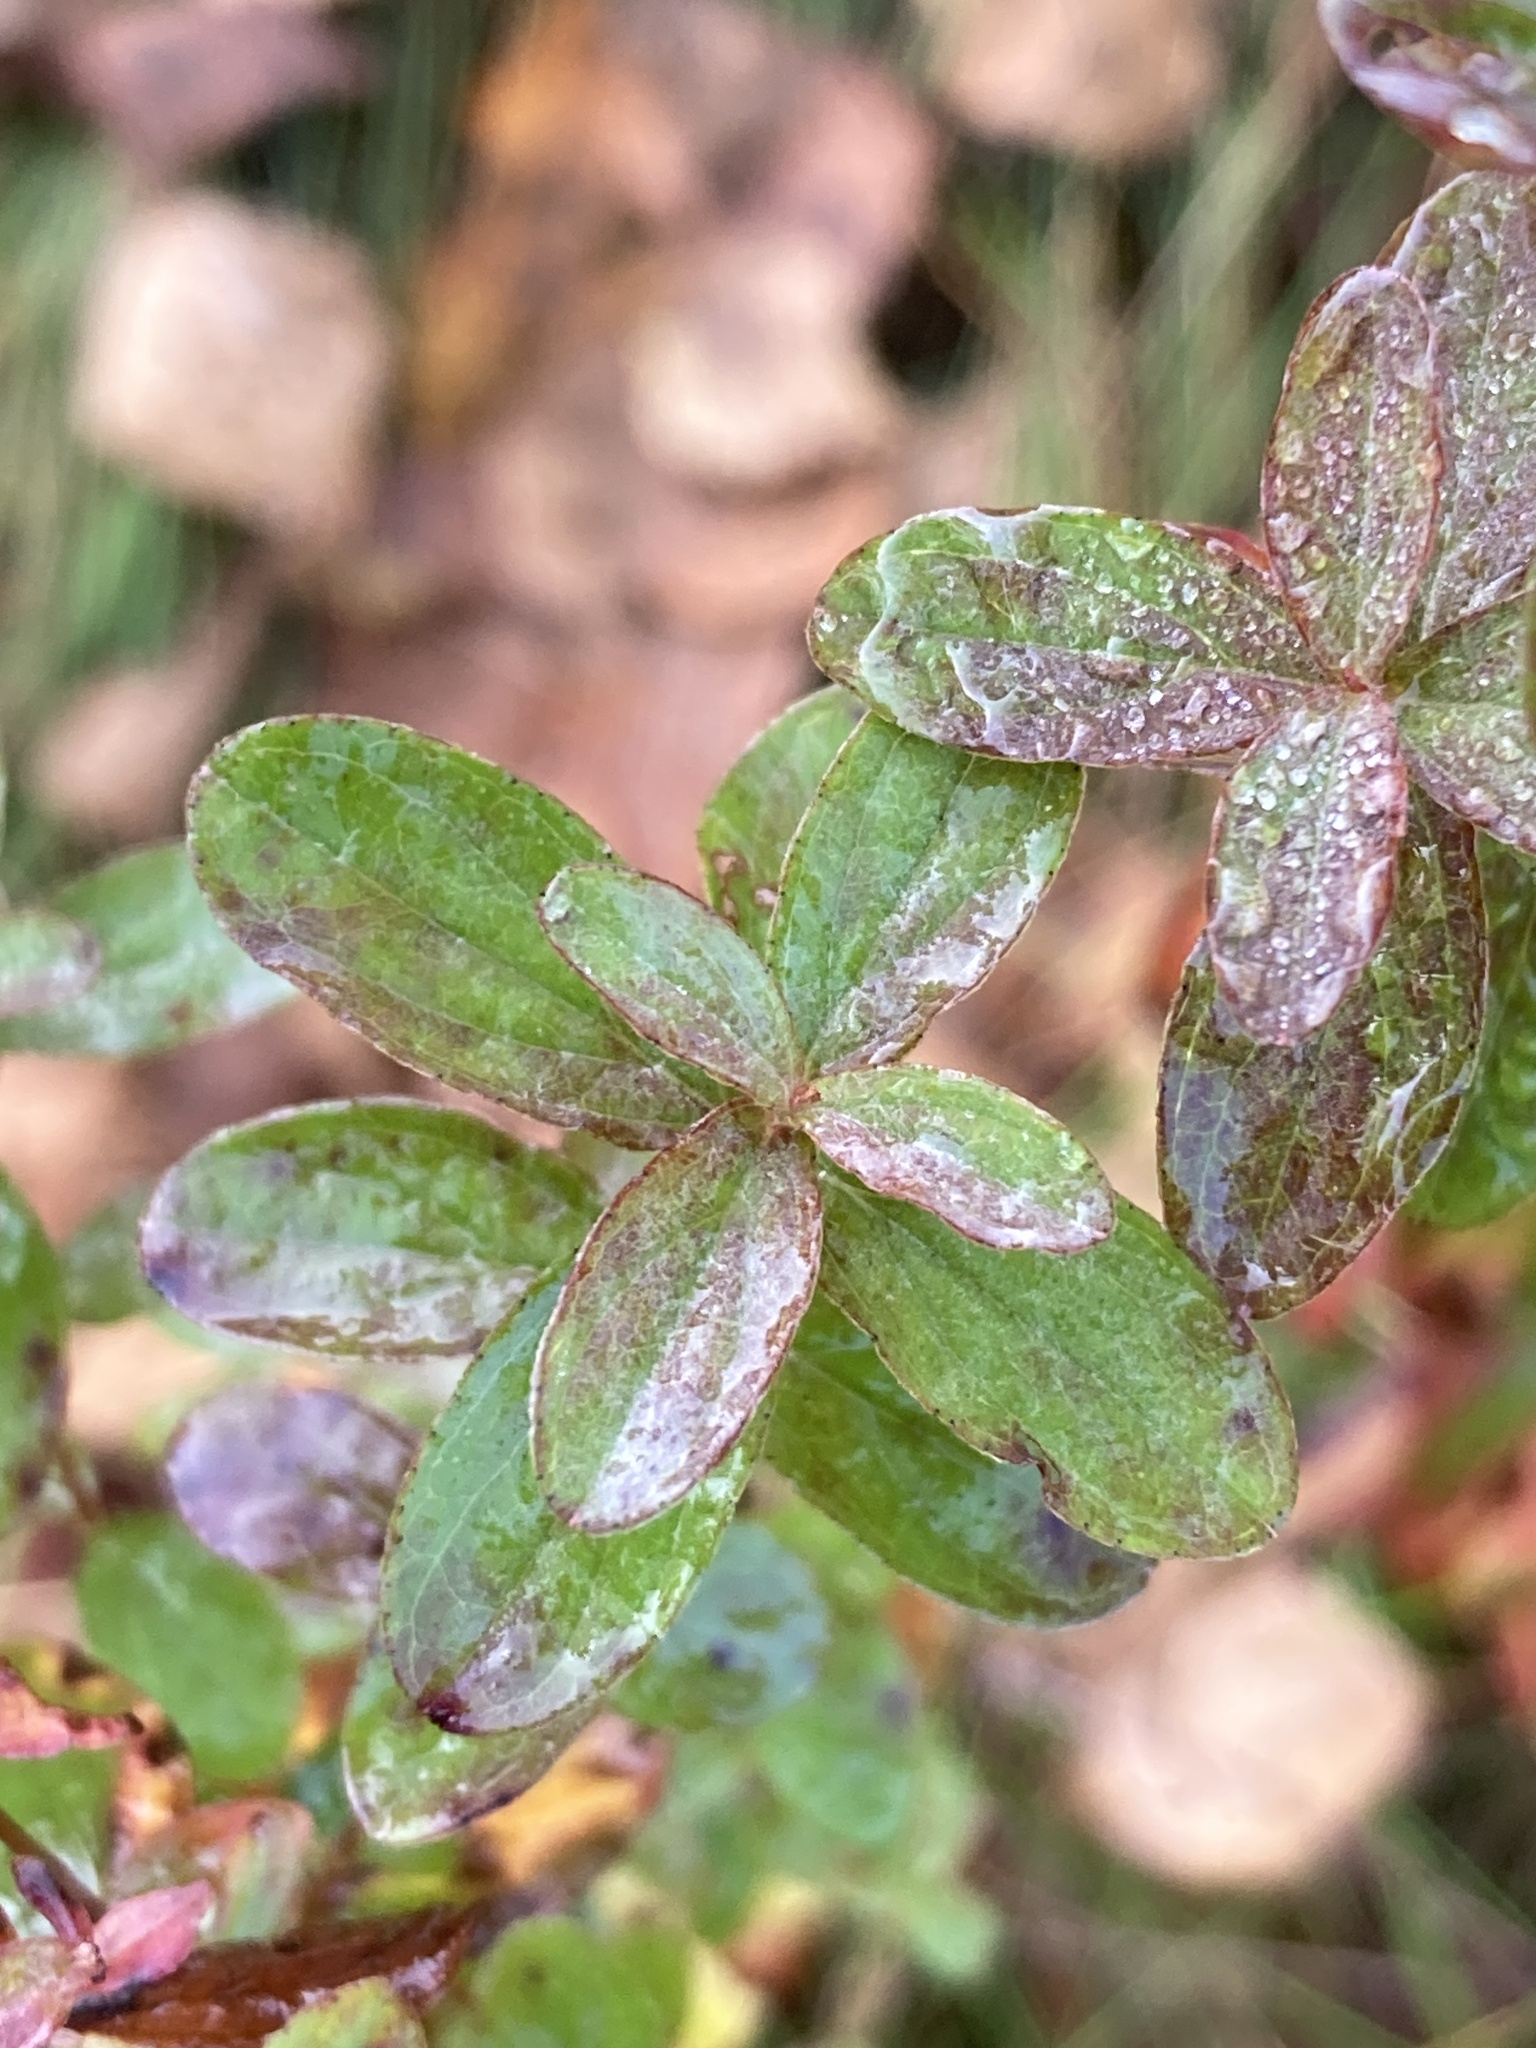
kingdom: Plantae
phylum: Tracheophyta
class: Magnoliopsida
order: Malpighiales
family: Hypericaceae
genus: Hypericum
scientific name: Hypericum maculatum
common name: Imperforate st. john's-wort
